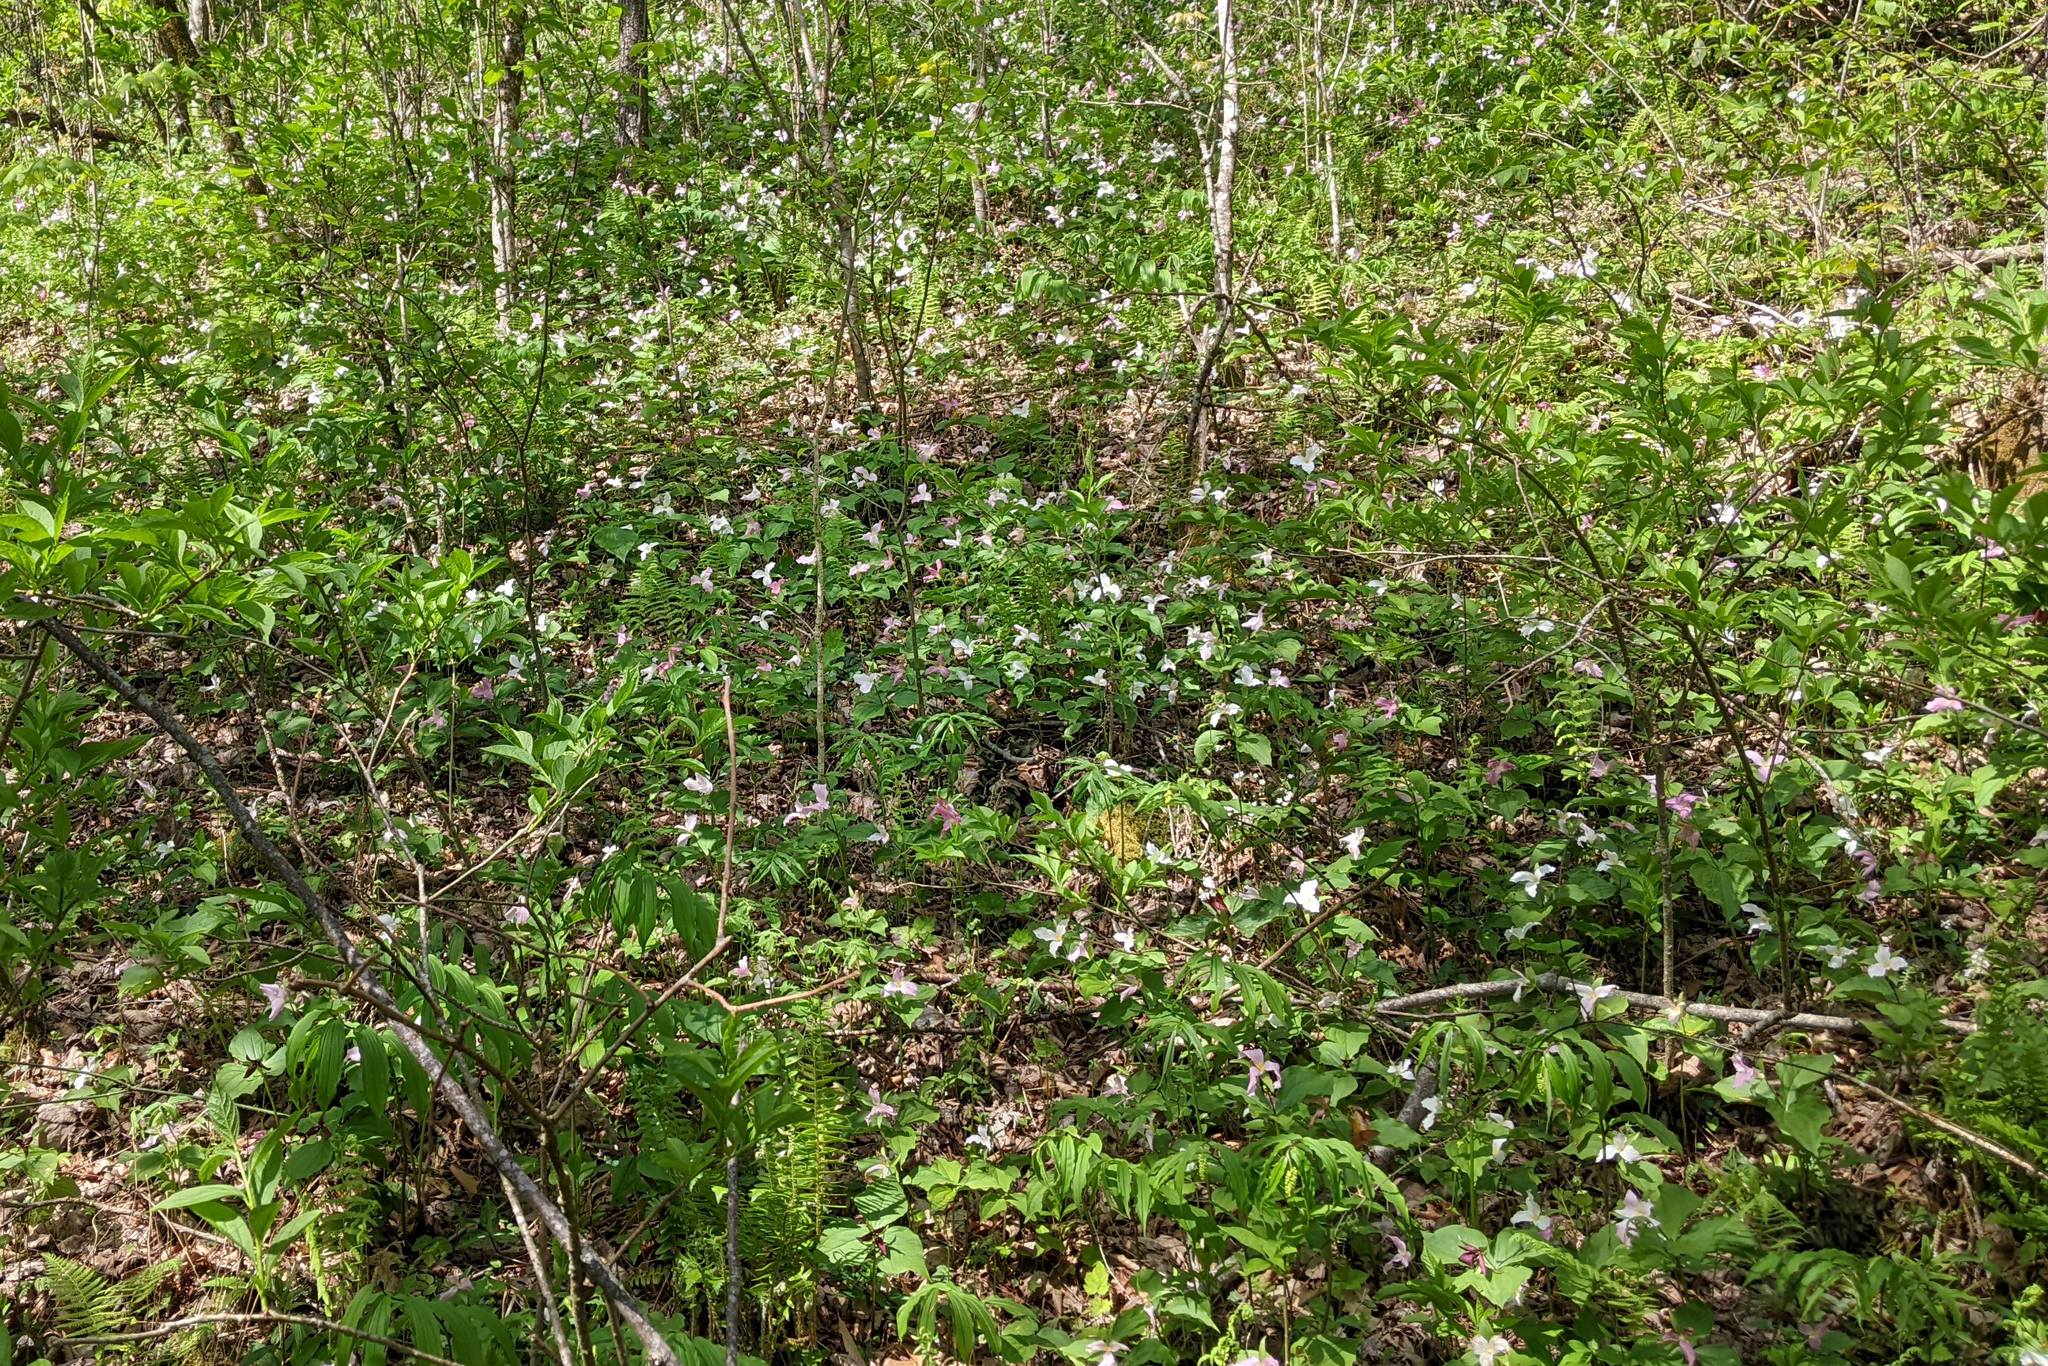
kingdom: Plantae
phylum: Tracheophyta
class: Liliopsida
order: Liliales
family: Melanthiaceae
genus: Trillium
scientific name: Trillium grandiflorum
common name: Great white trillium
